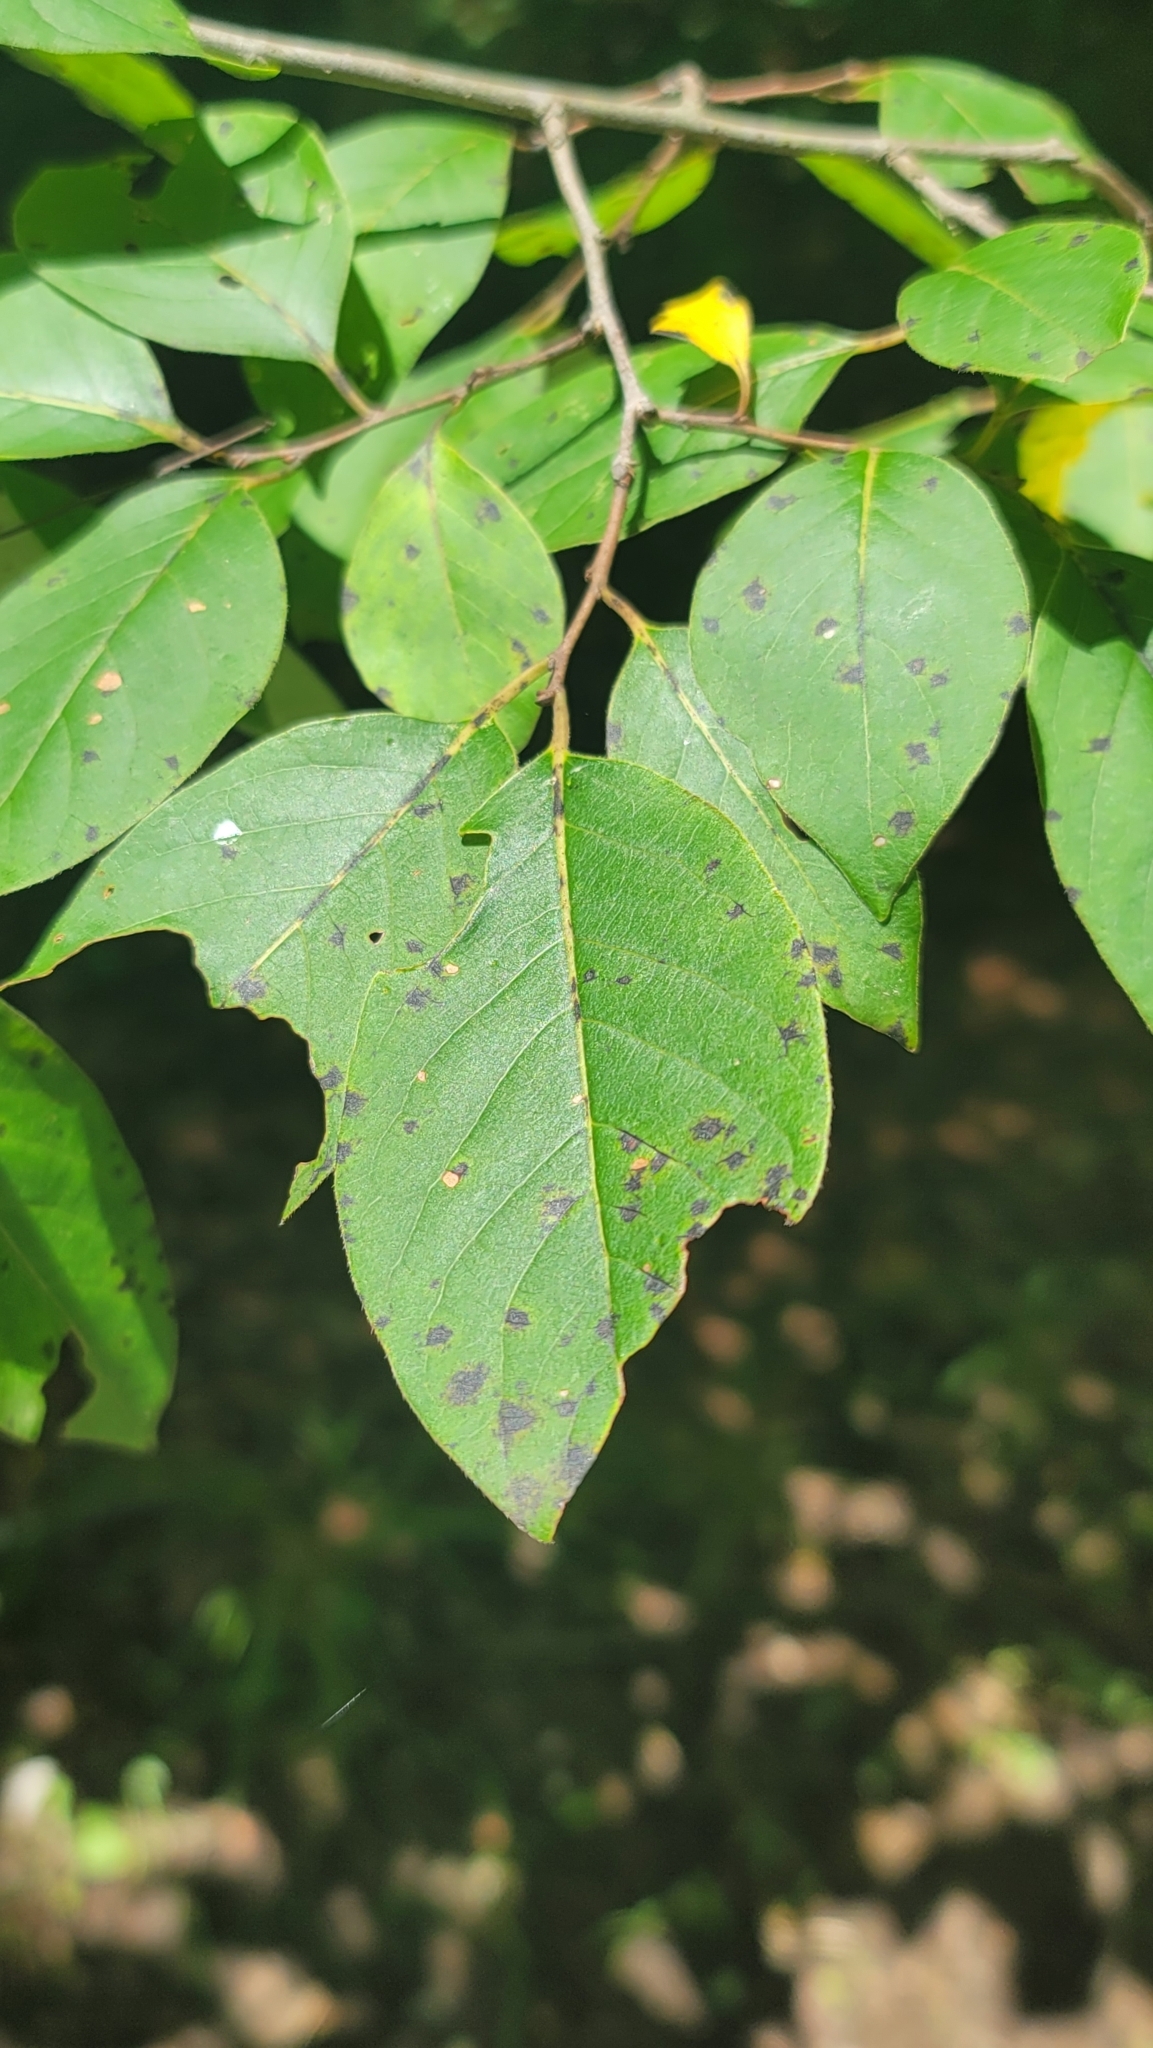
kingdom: Plantae
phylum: Tracheophyta
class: Magnoliopsida
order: Ericales
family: Ebenaceae
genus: Diospyros
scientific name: Diospyros virginiana
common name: Persimmon
